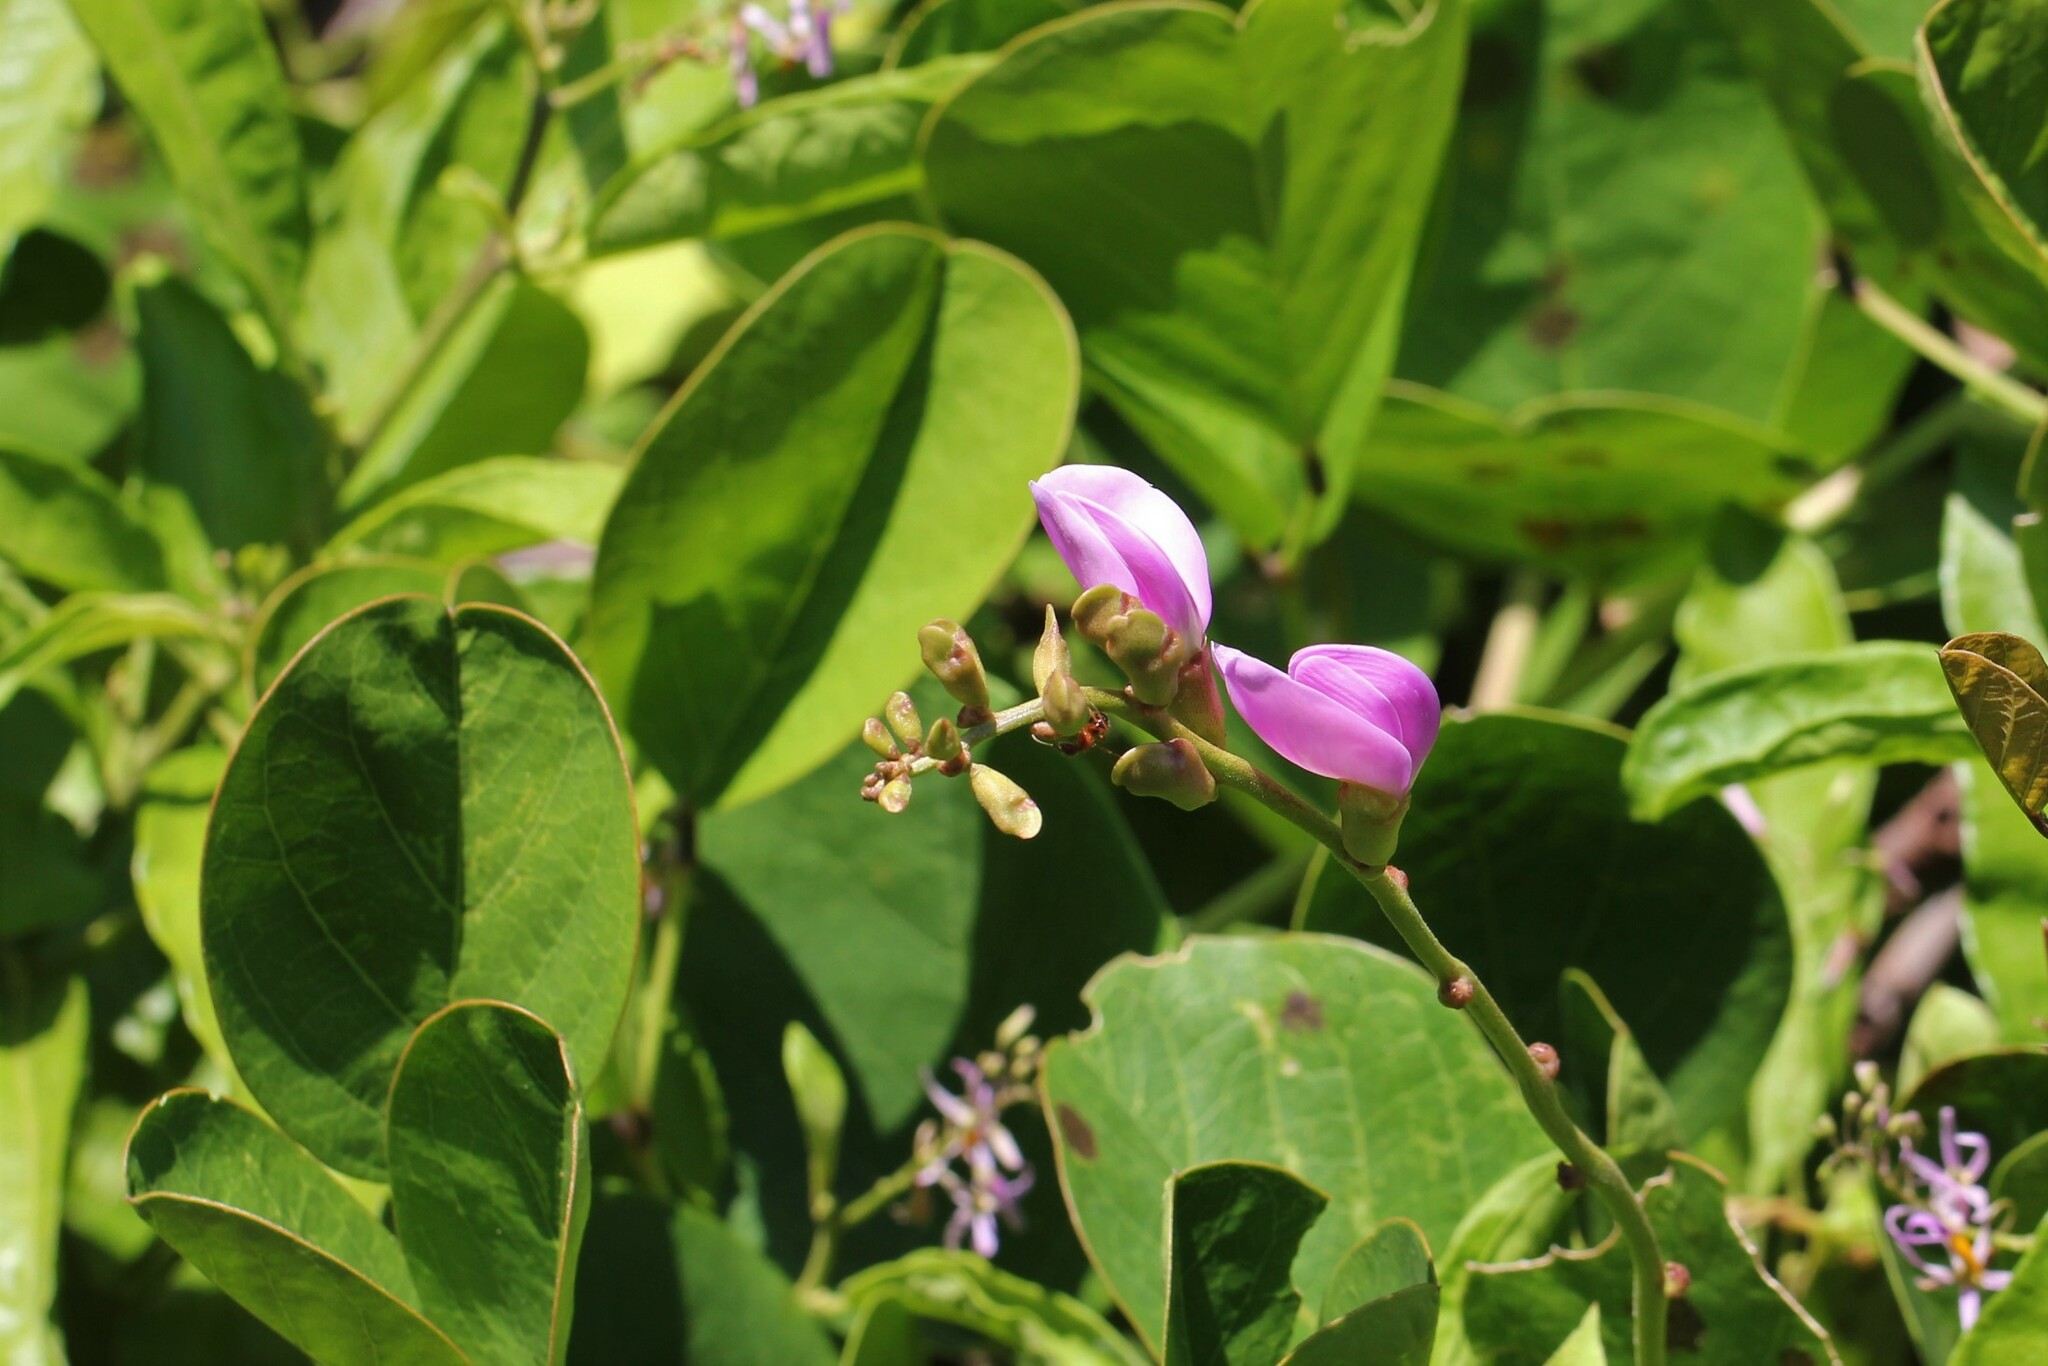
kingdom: Plantae
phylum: Tracheophyta
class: Magnoliopsida
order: Fabales
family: Fabaceae
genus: Canavalia
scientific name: Canavalia rosea
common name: Beach-bean
